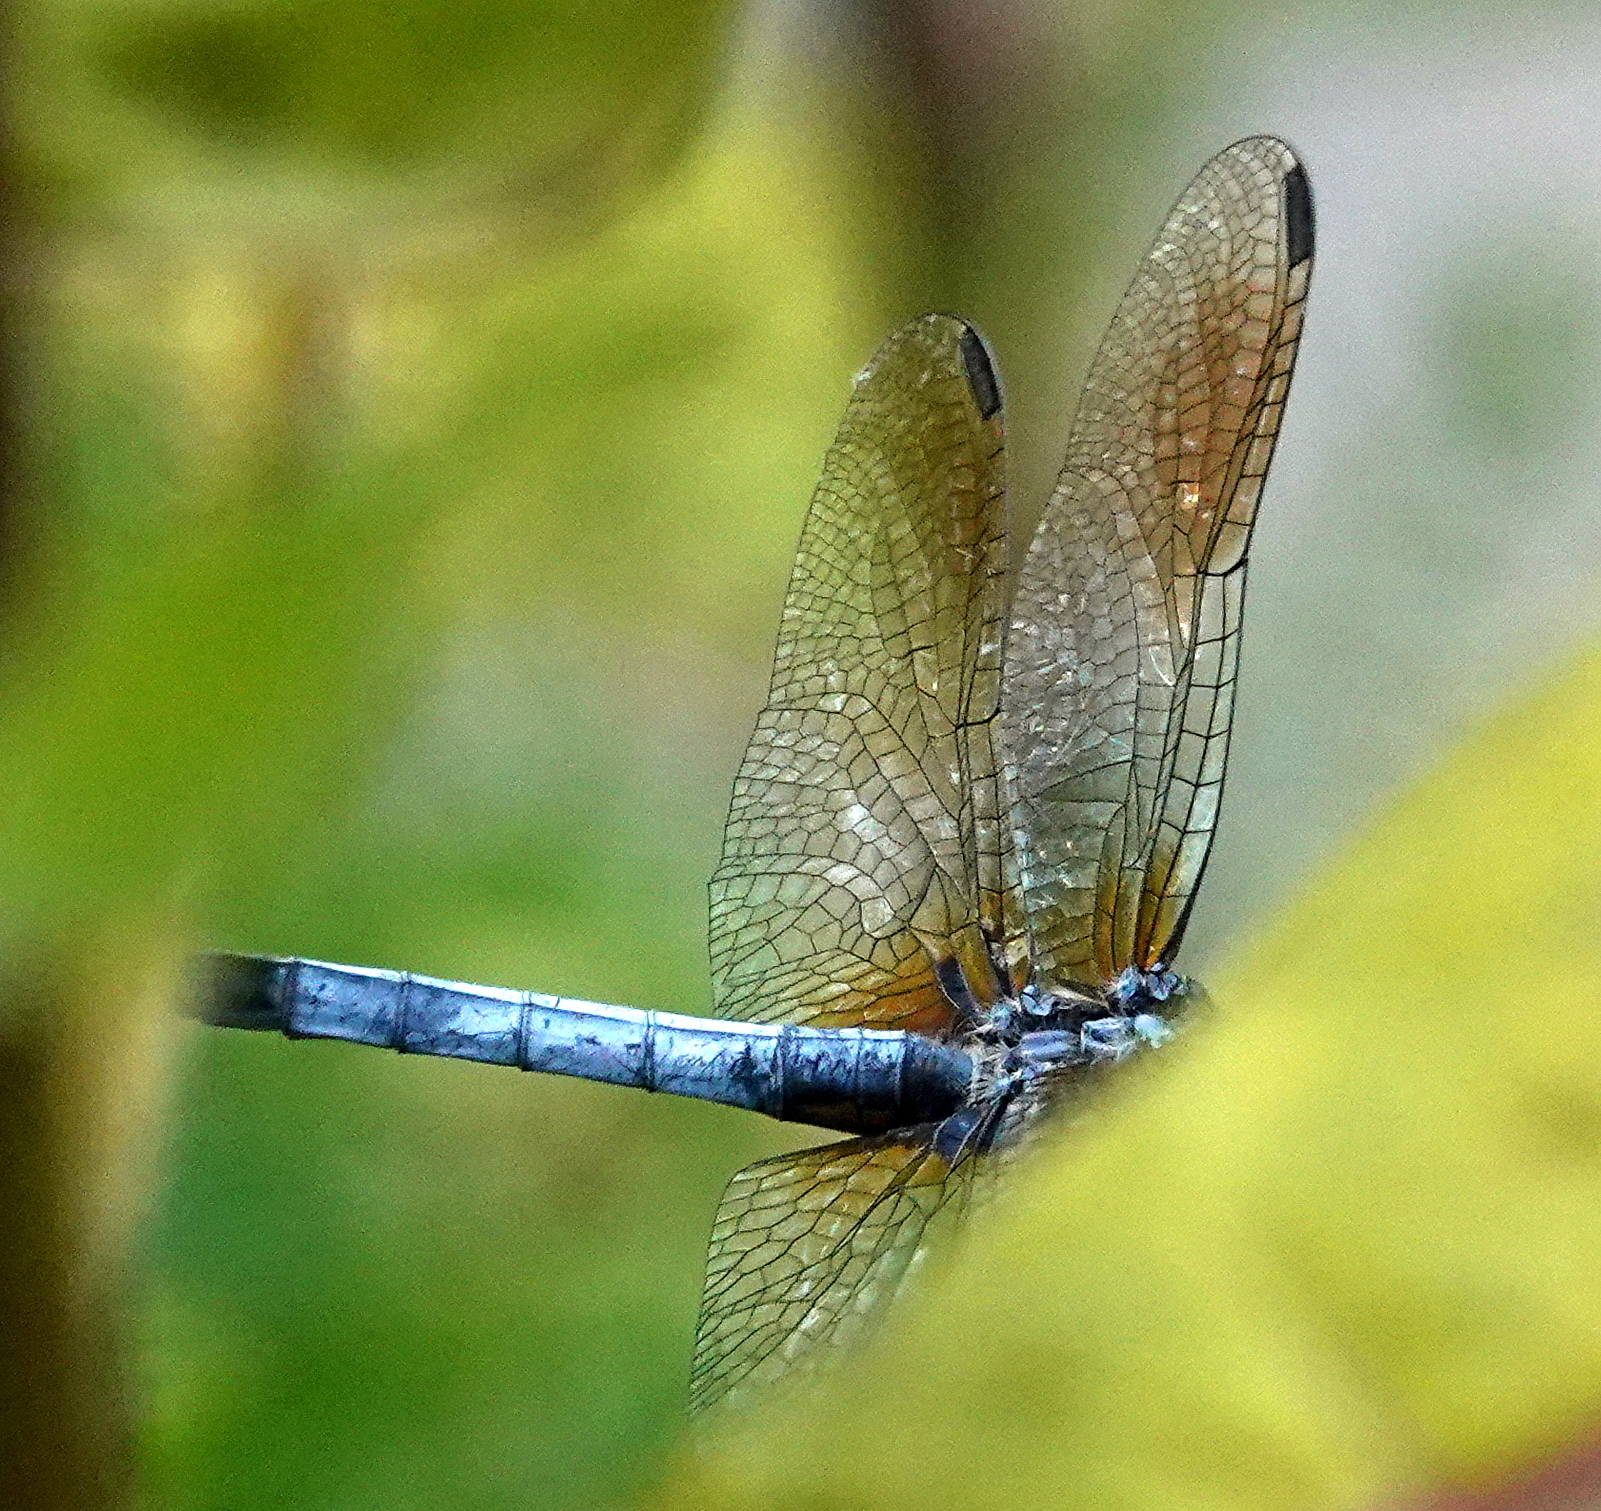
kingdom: Animalia
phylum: Arthropoda
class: Insecta
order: Odonata
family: Libellulidae
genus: Pachydiplax
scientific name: Pachydiplax longipennis
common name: Blue dasher
